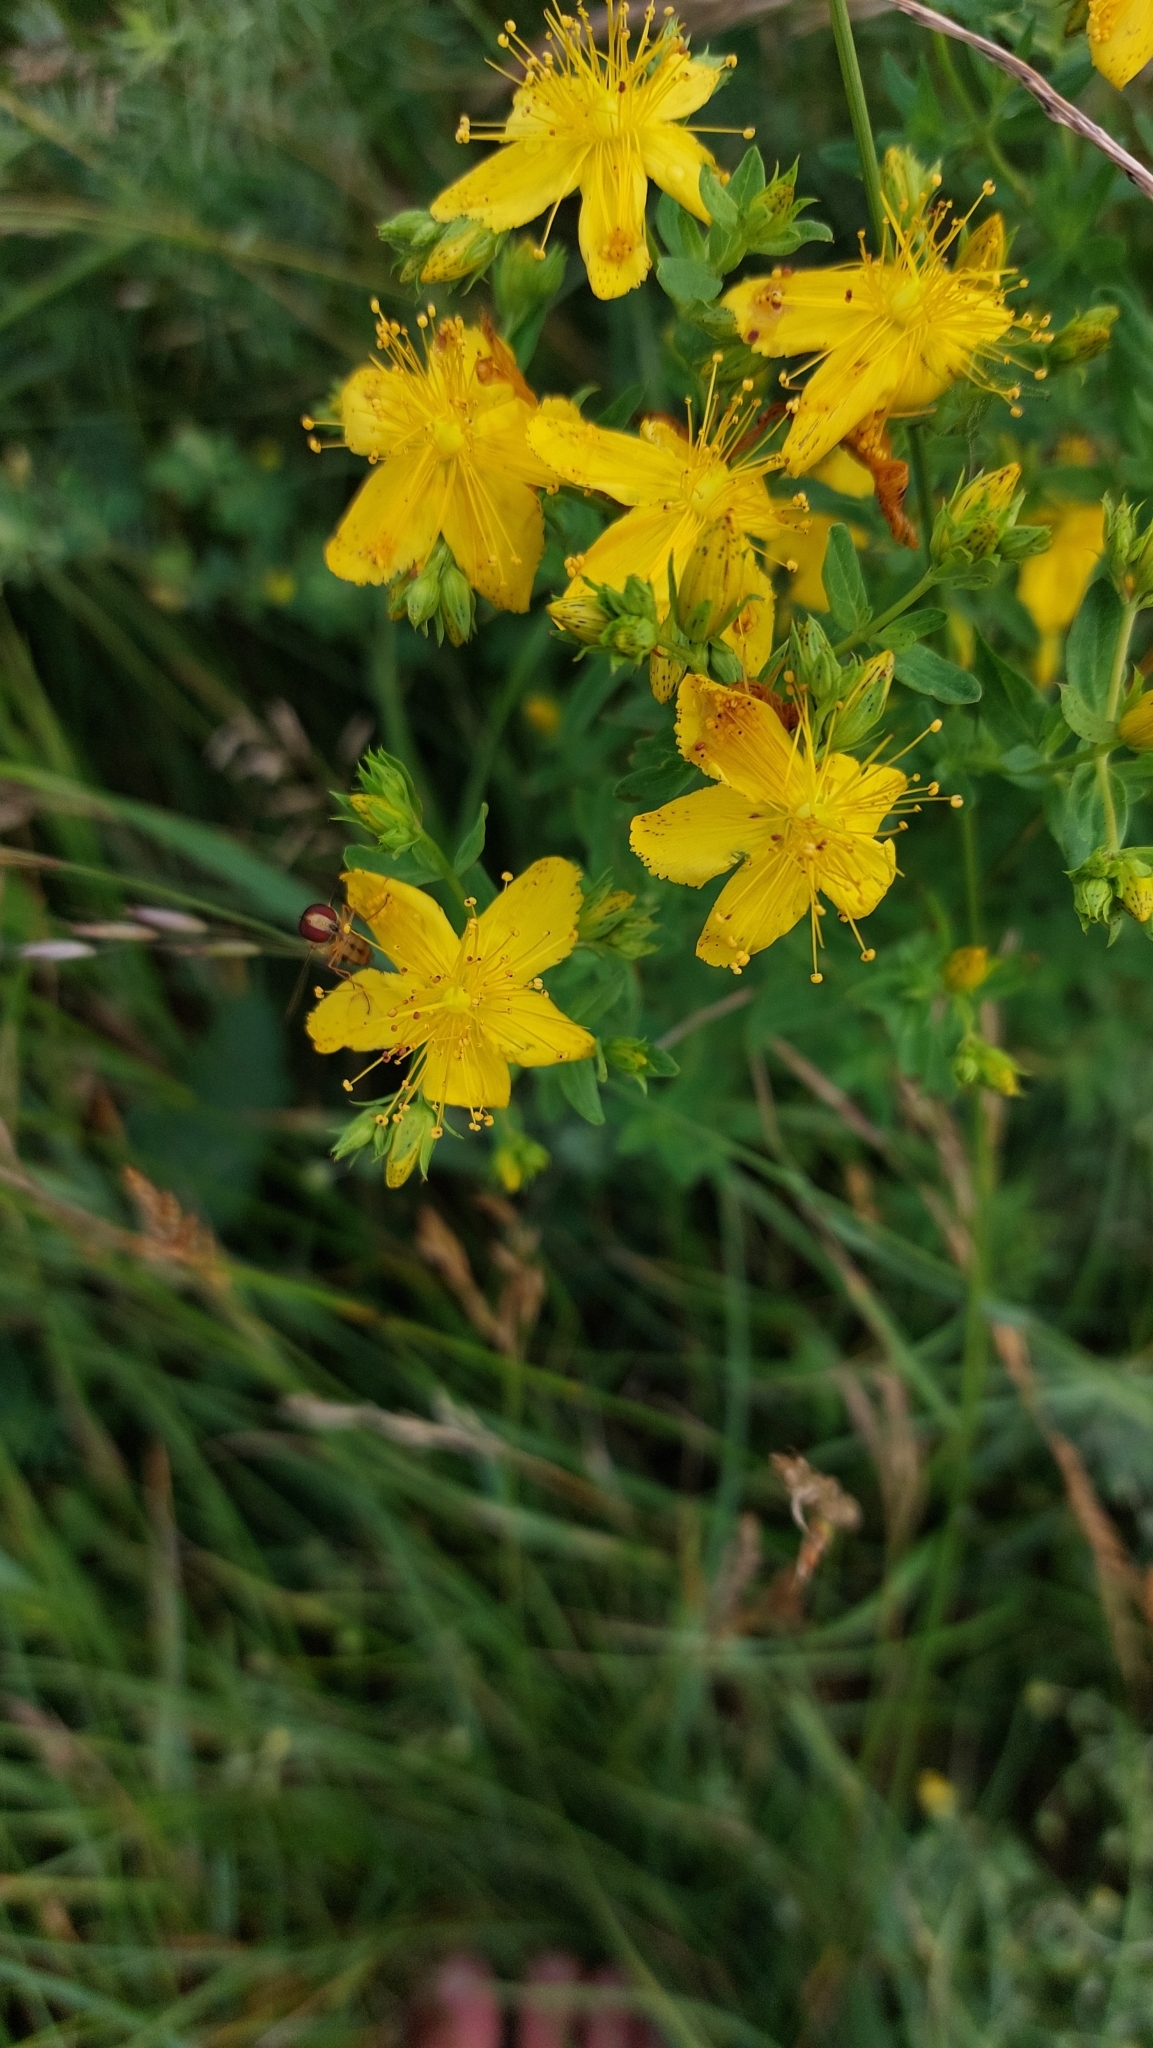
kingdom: Plantae
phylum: Tracheophyta
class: Magnoliopsida
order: Malpighiales
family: Hypericaceae
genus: Hypericum
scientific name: Hypericum perforatum
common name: Common st. johnswort
